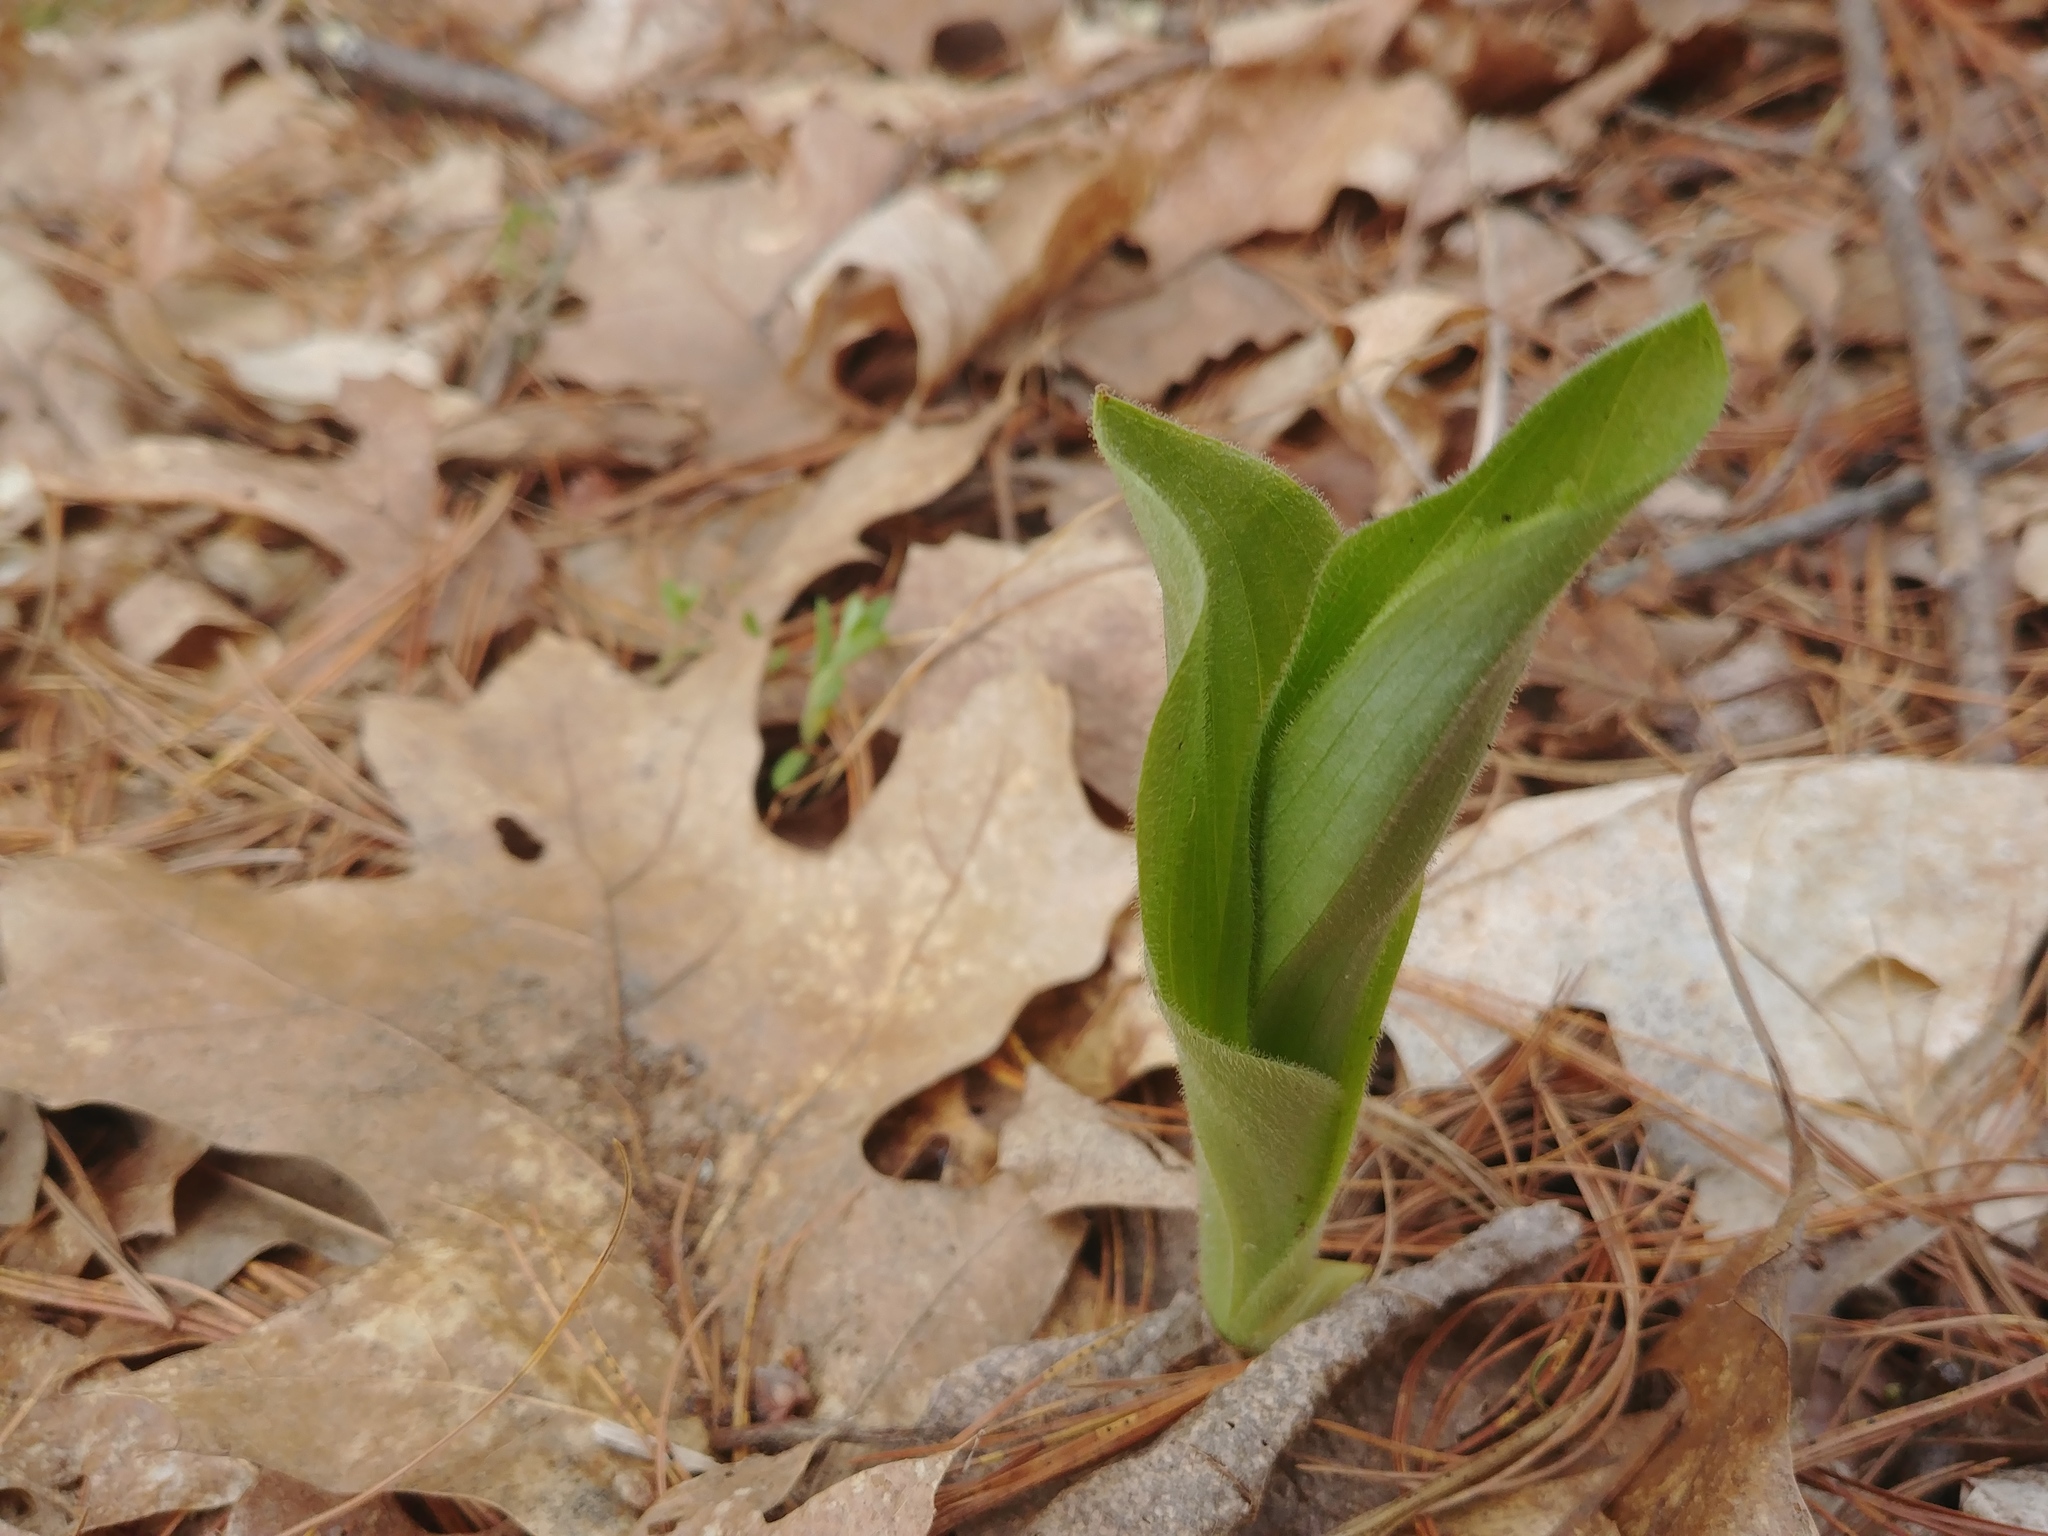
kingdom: Plantae
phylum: Tracheophyta
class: Liliopsida
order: Asparagales
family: Orchidaceae
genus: Cypripedium
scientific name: Cypripedium acaule
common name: Pink lady's-slipper
